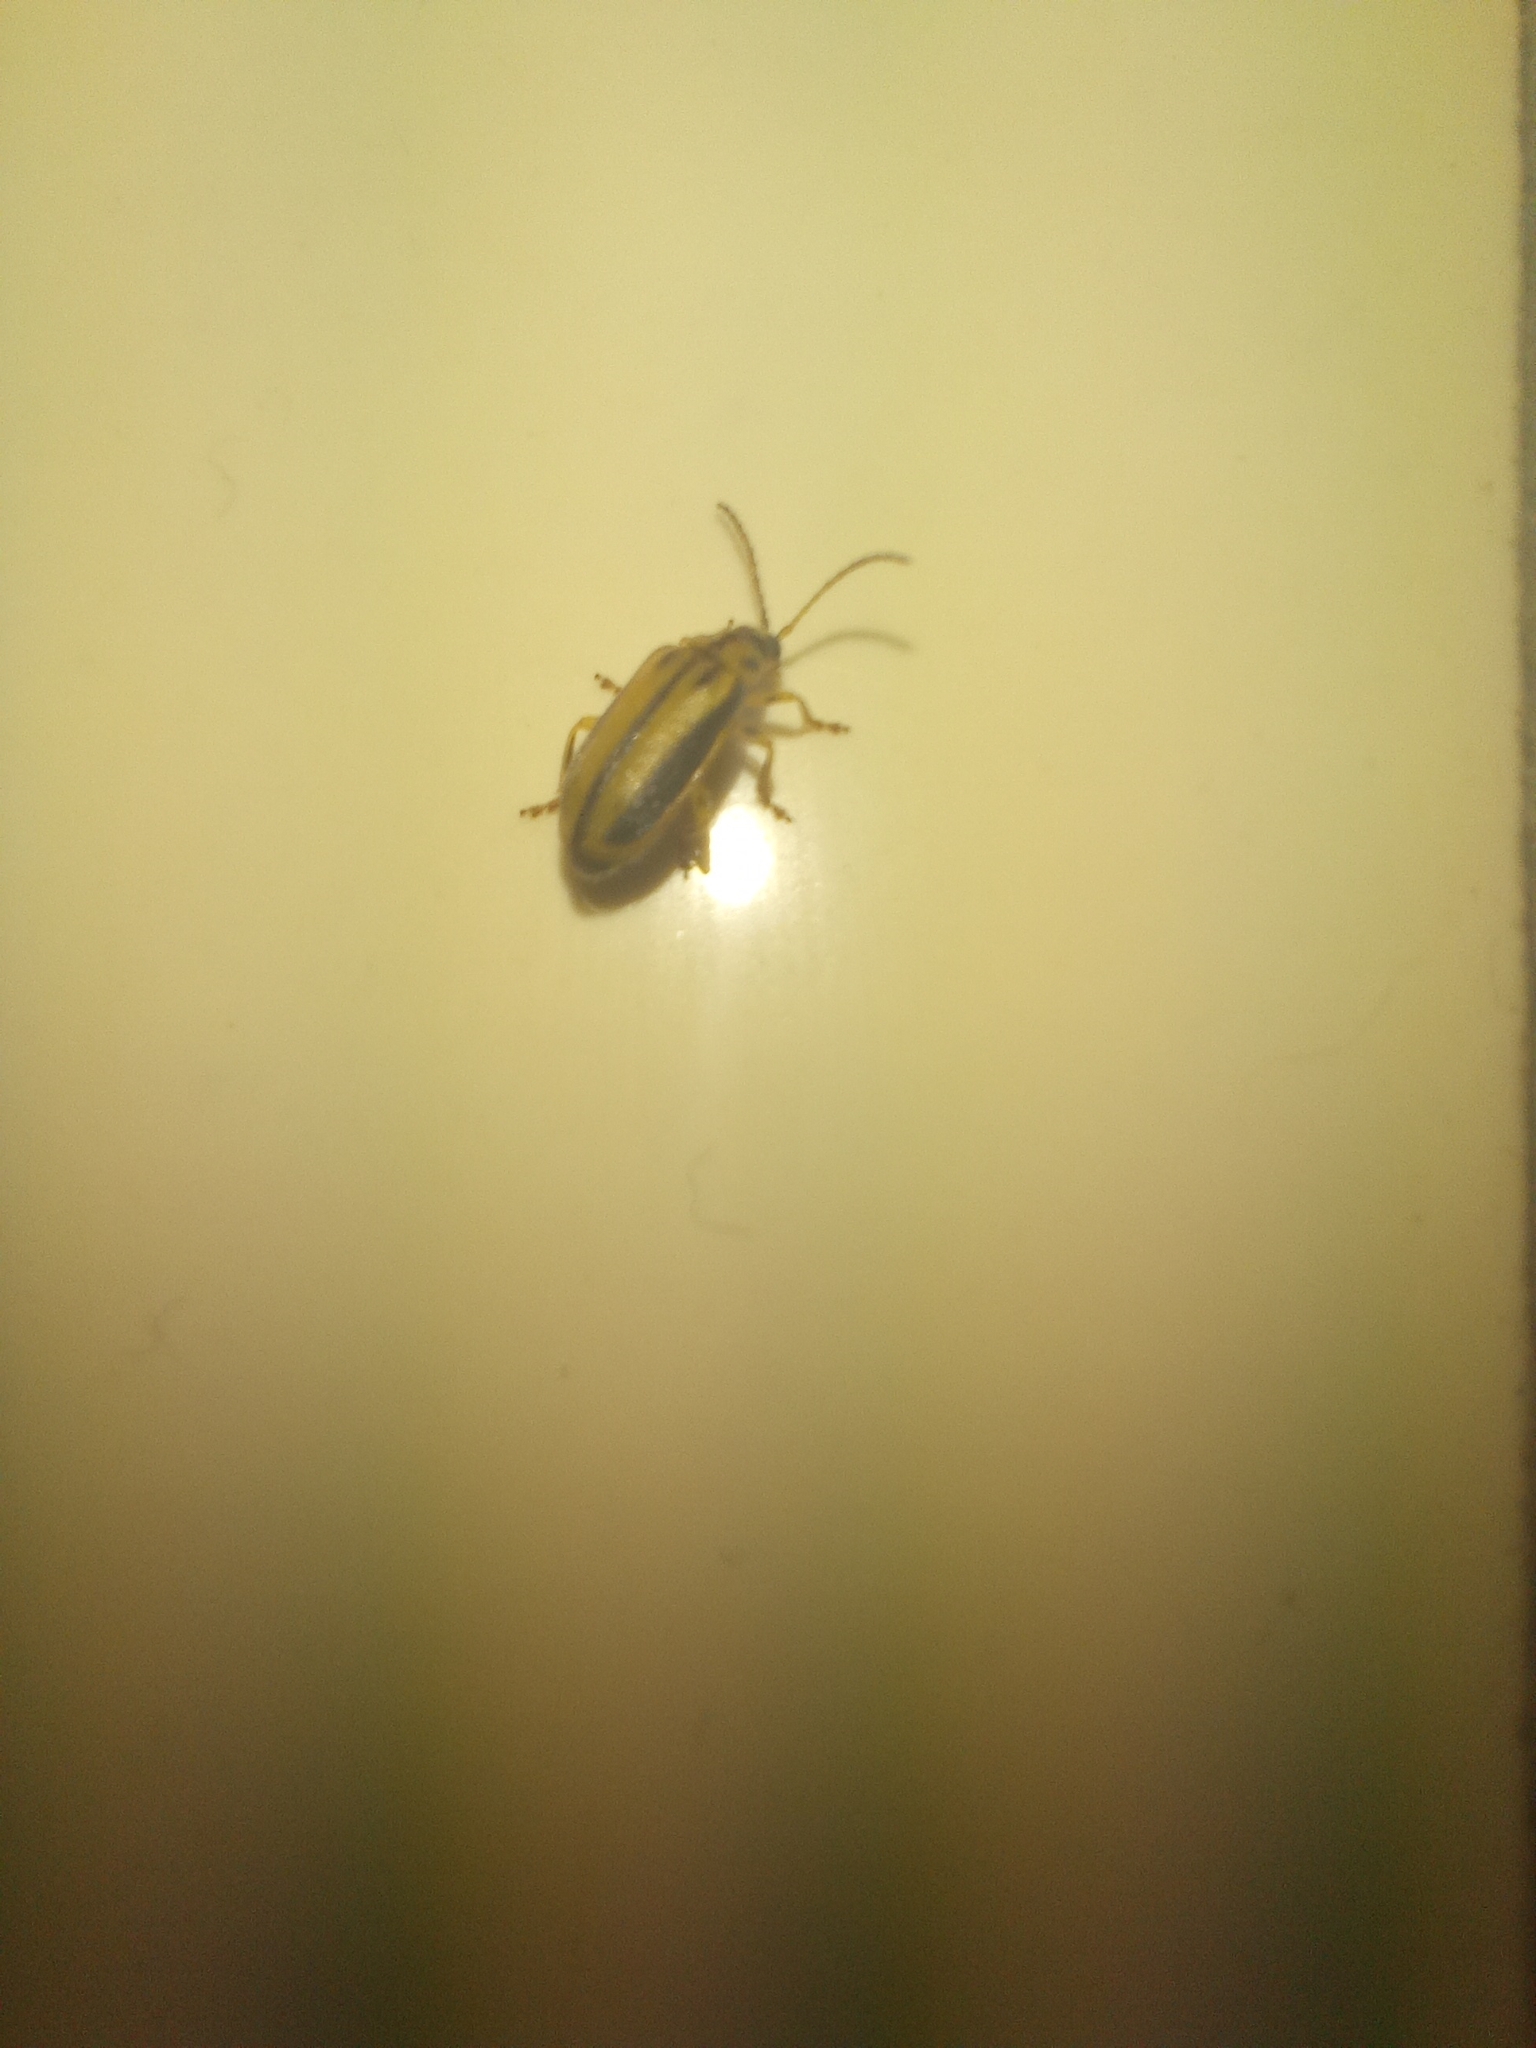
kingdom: Animalia
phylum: Arthropoda
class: Insecta
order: Coleoptera
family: Chrysomelidae
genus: Xanthogaleruca
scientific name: Xanthogaleruca luteola
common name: Elm leaf beetle
